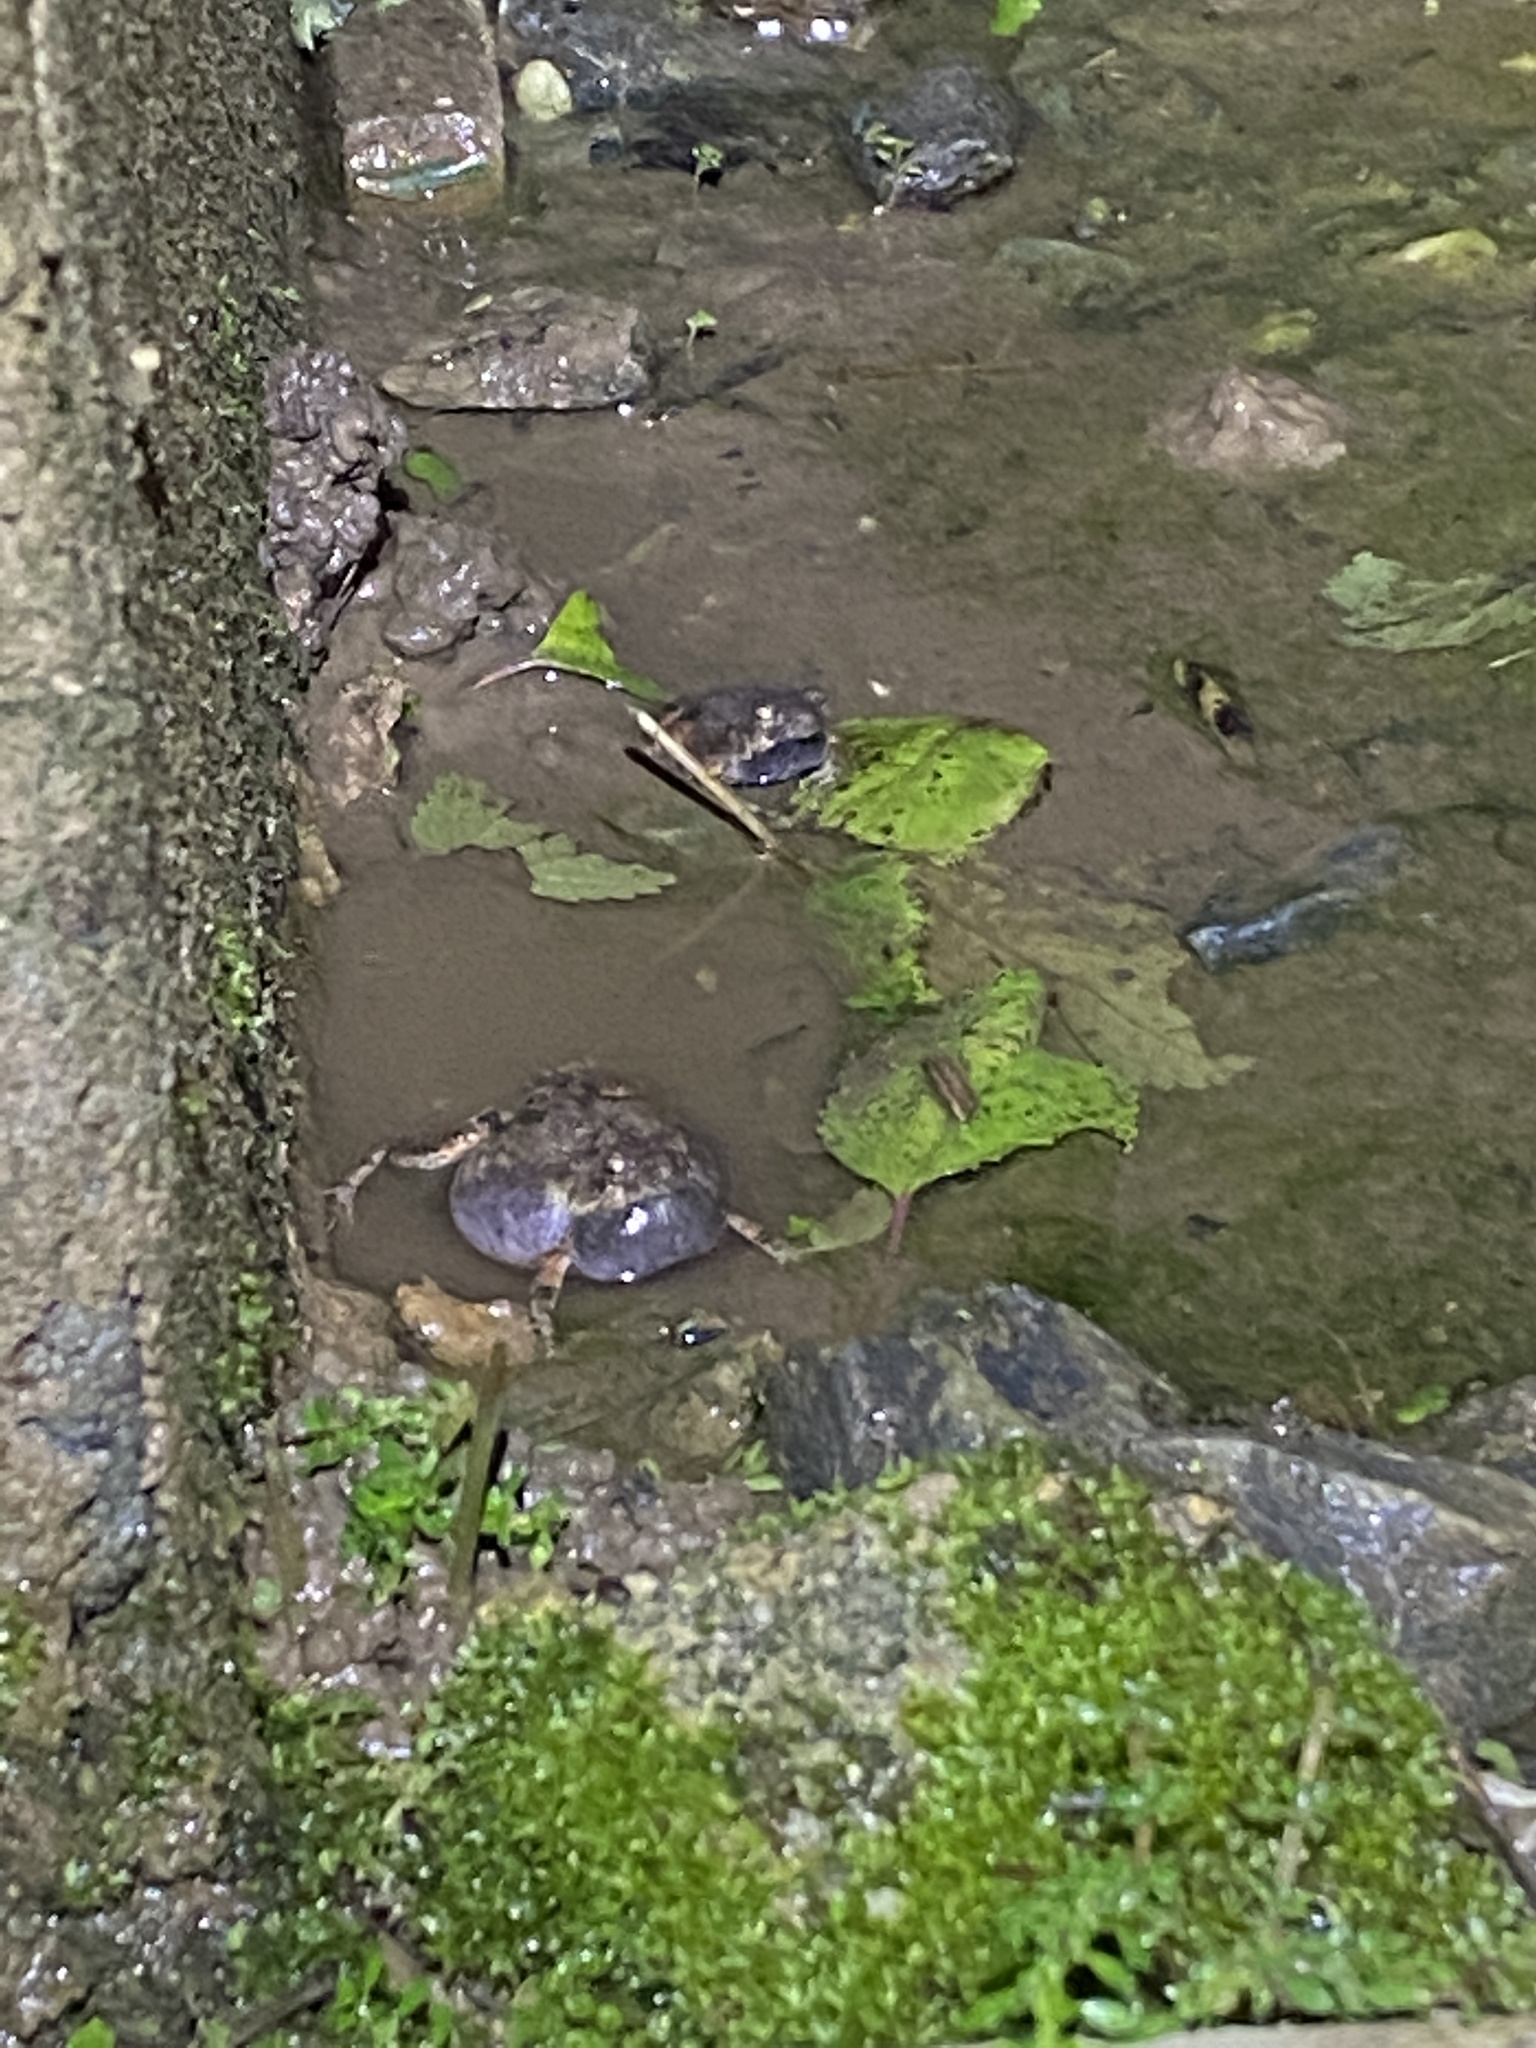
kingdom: Animalia
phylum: Chordata
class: Amphibia
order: Anura
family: Leptodactylidae
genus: Engystomops
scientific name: Engystomops pustulosus
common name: Tungara frog
